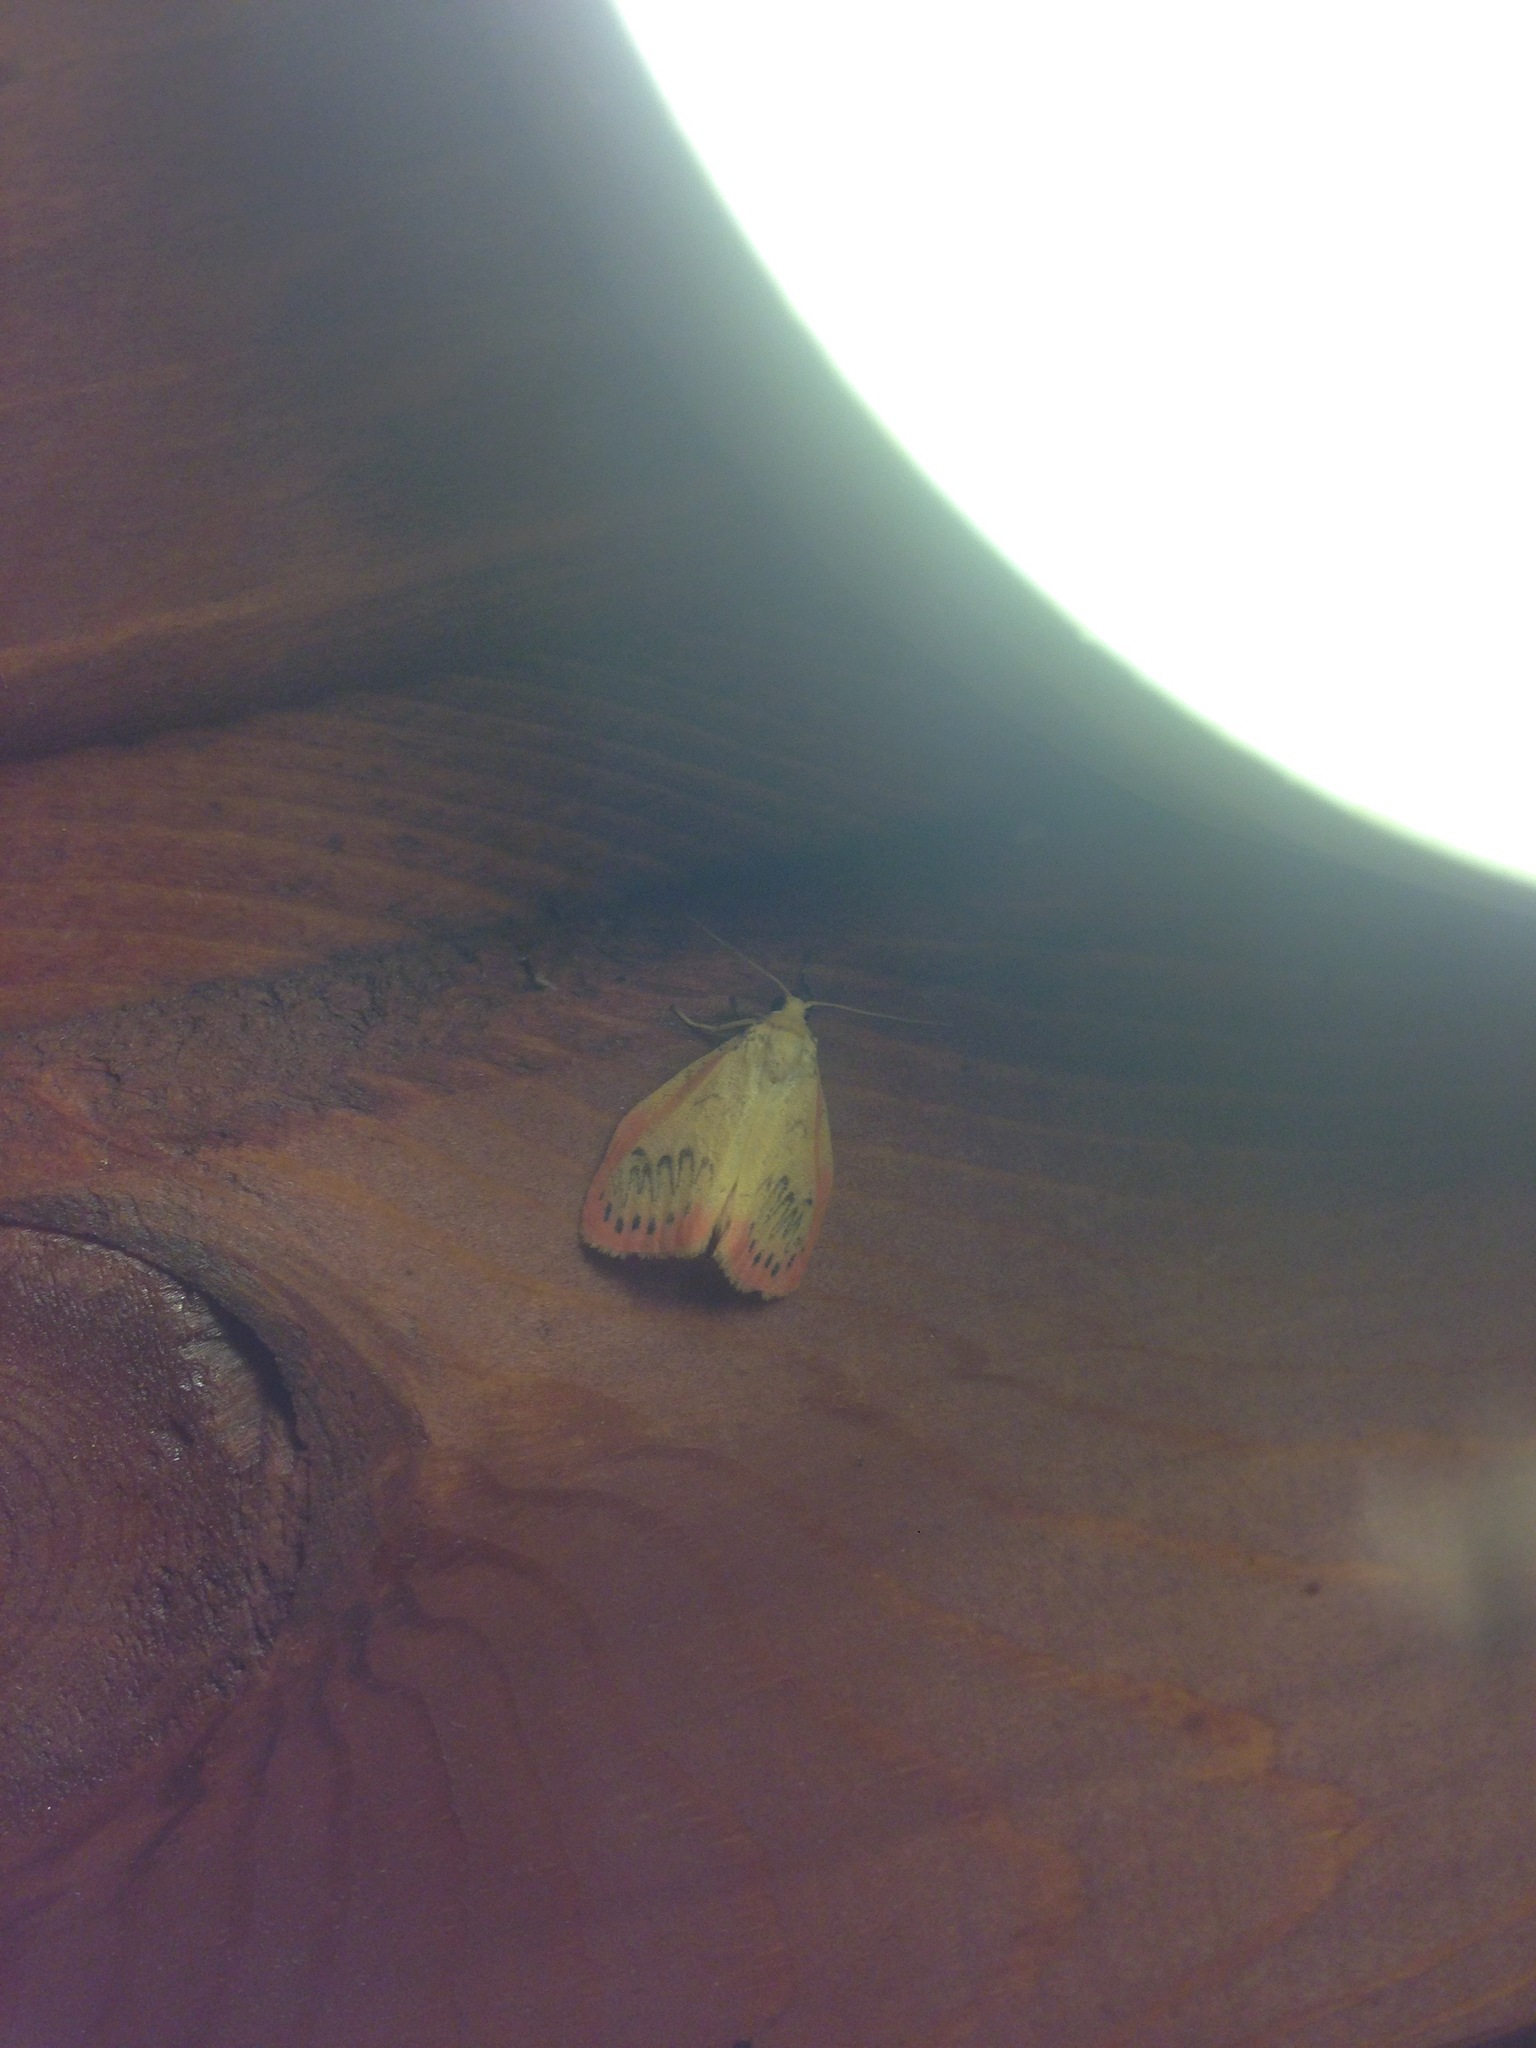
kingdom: Animalia
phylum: Arthropoda
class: Insecta
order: Lepidoptera
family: Erebidae
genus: Miltochrista
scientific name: Miltochrista miniata
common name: Rosy footman
